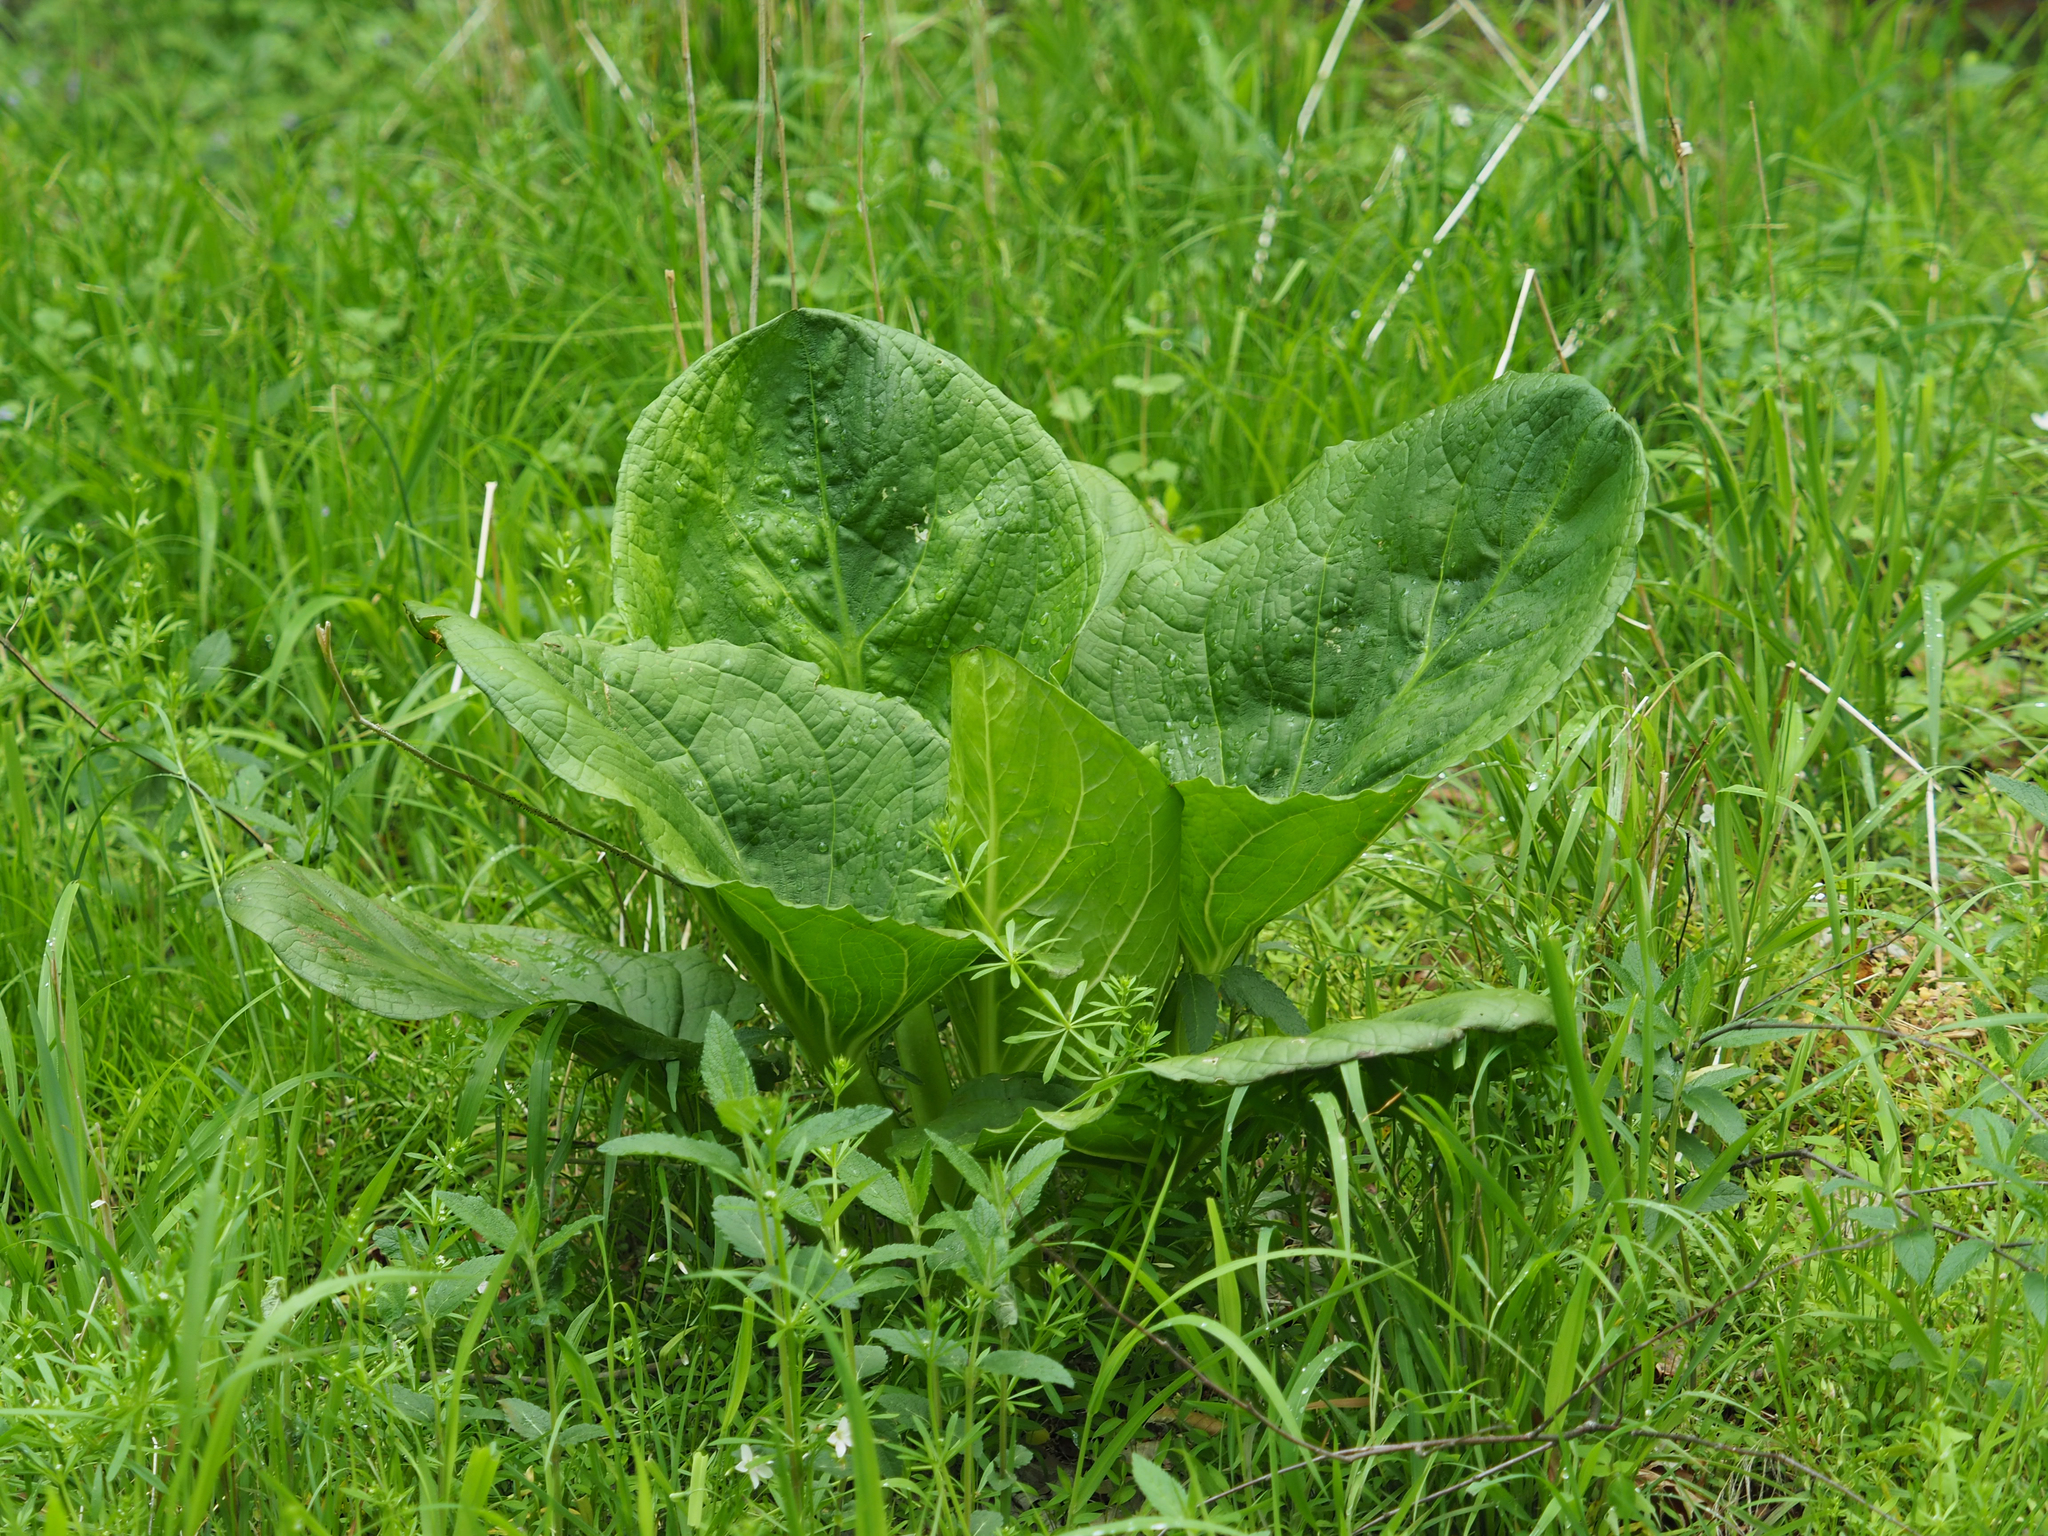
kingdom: Plantae
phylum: Tracheophyta
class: Liliopsida
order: Alismatales
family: Araceae
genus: Symplocarpus
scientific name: Symplocarpus foetidus
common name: Eastern skunk cabbage
